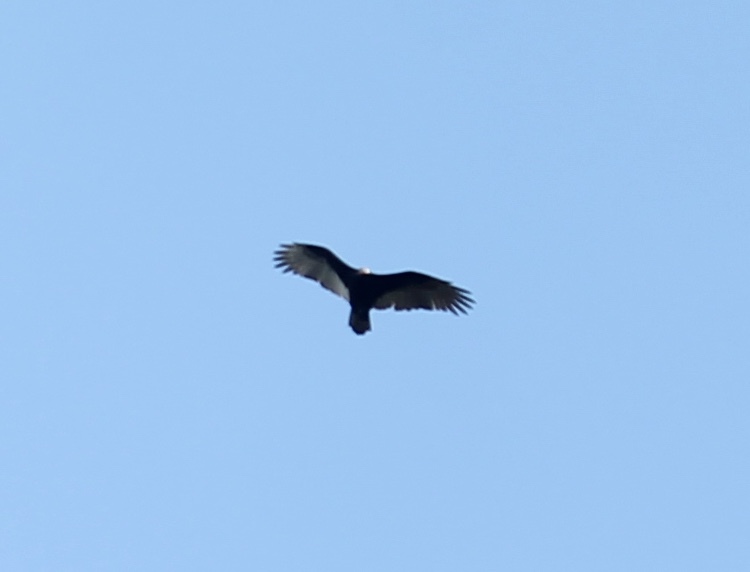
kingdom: Animalia
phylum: Chordata
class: Aves
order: Accipitriformes
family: Cathartidae
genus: Cathartes
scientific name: Cathartes aura
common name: Turkey vulture
